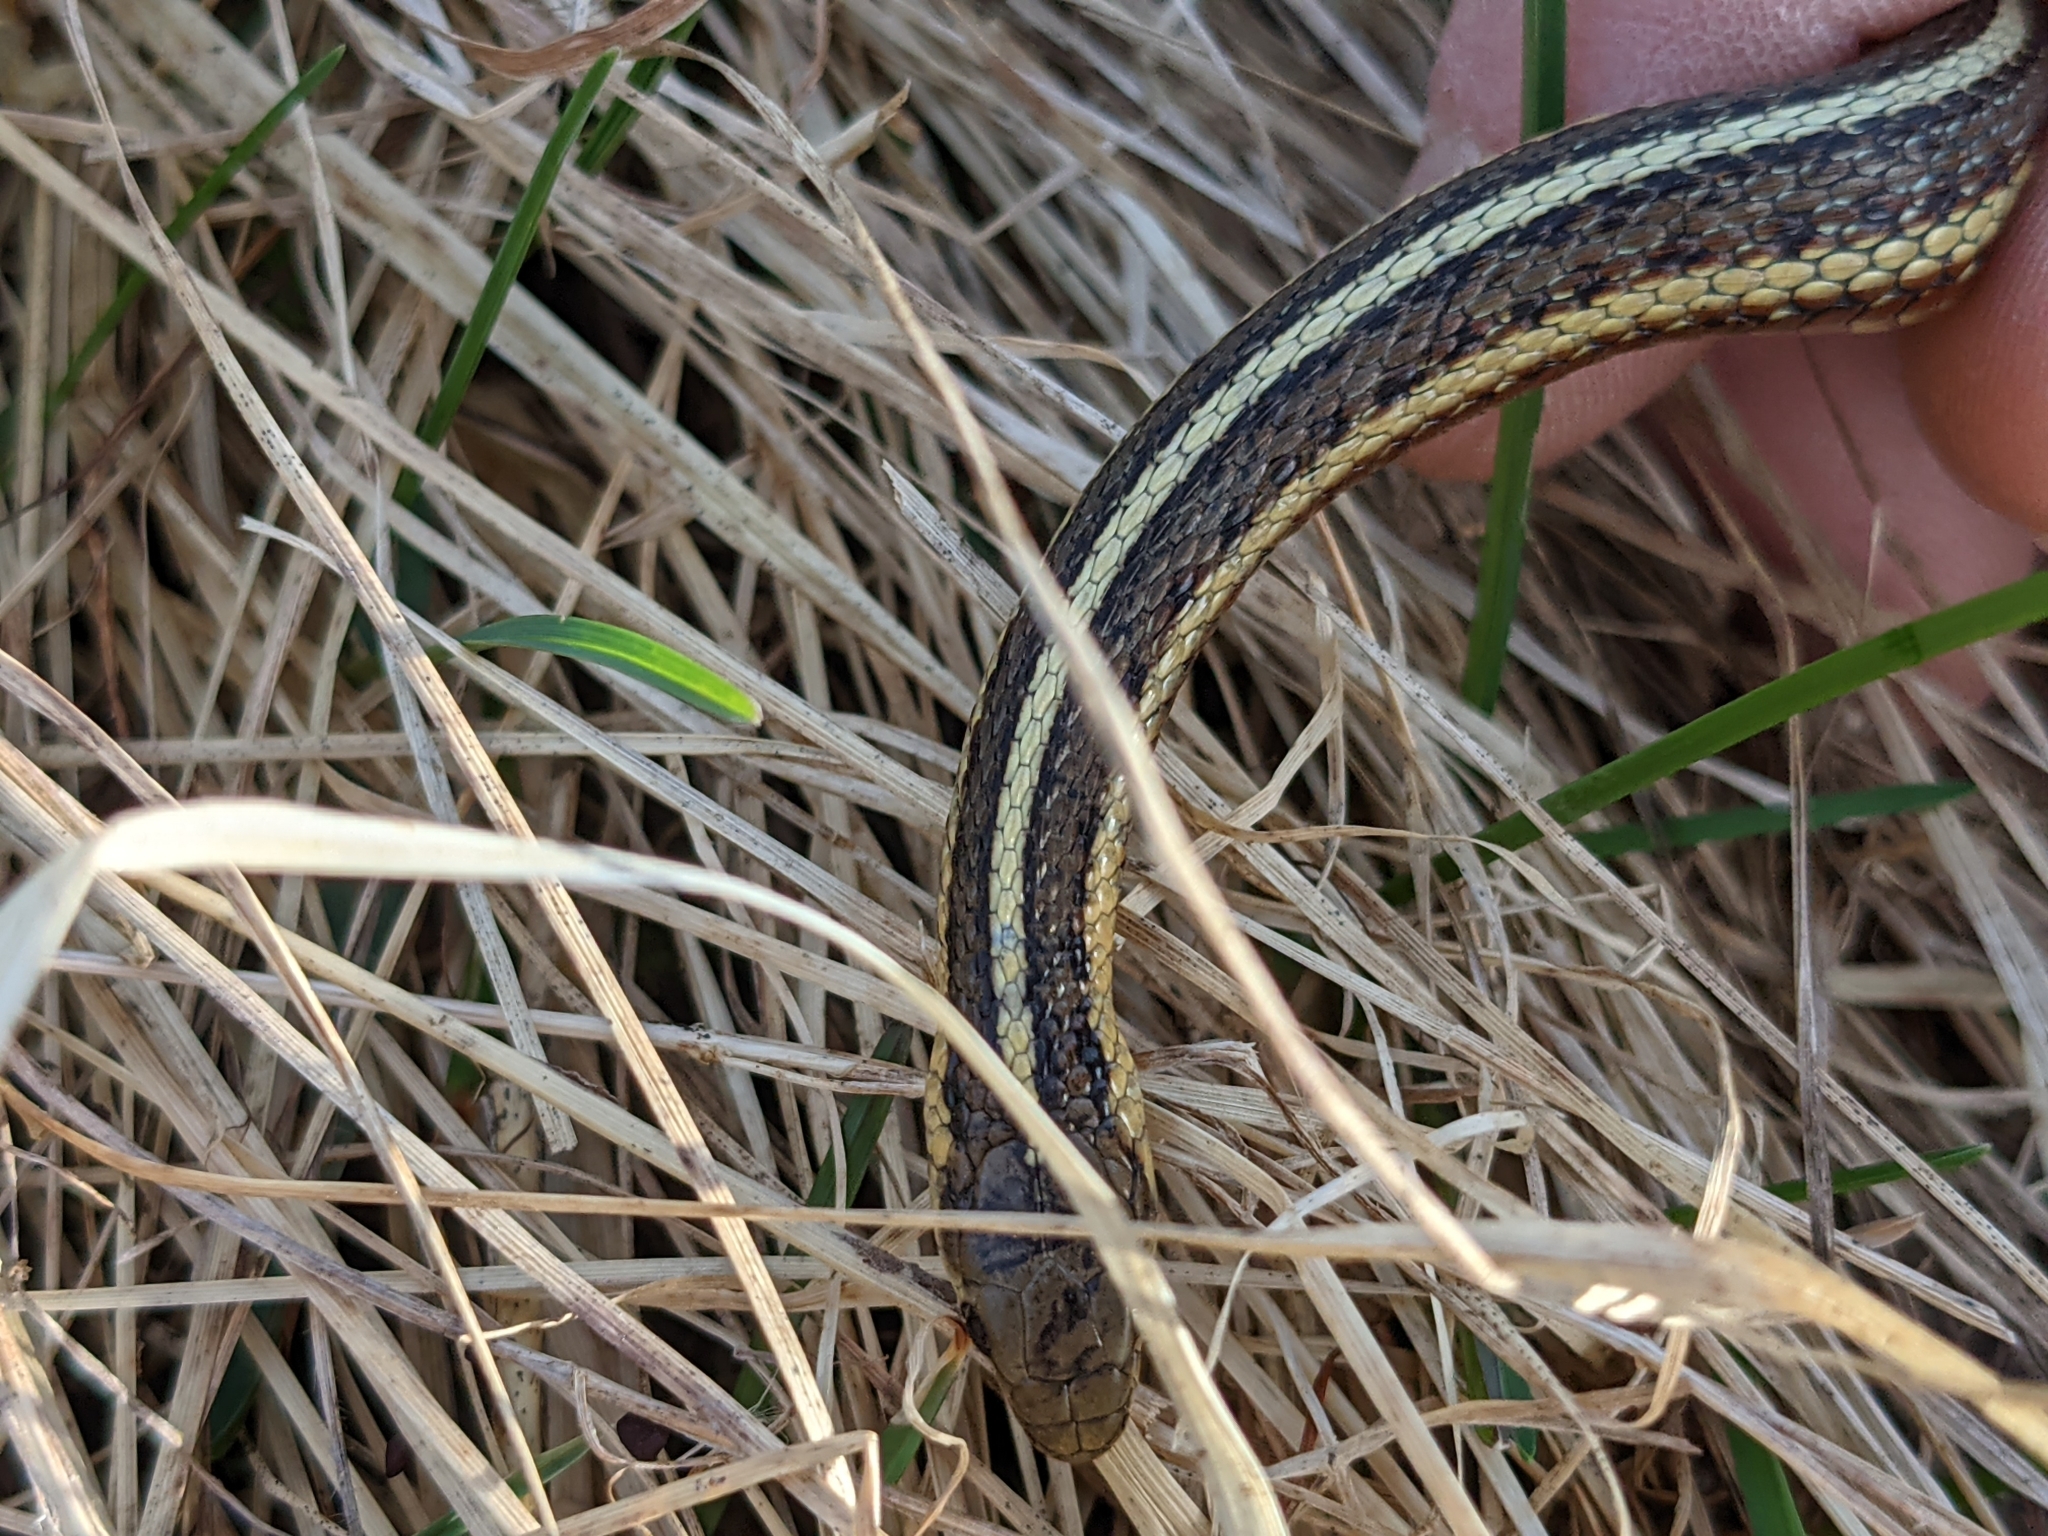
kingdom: Animalia
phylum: Chordata
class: Squamata
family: Colubridae
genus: Thamnophis
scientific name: Thamnophis butleri
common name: Butler's garter snake
